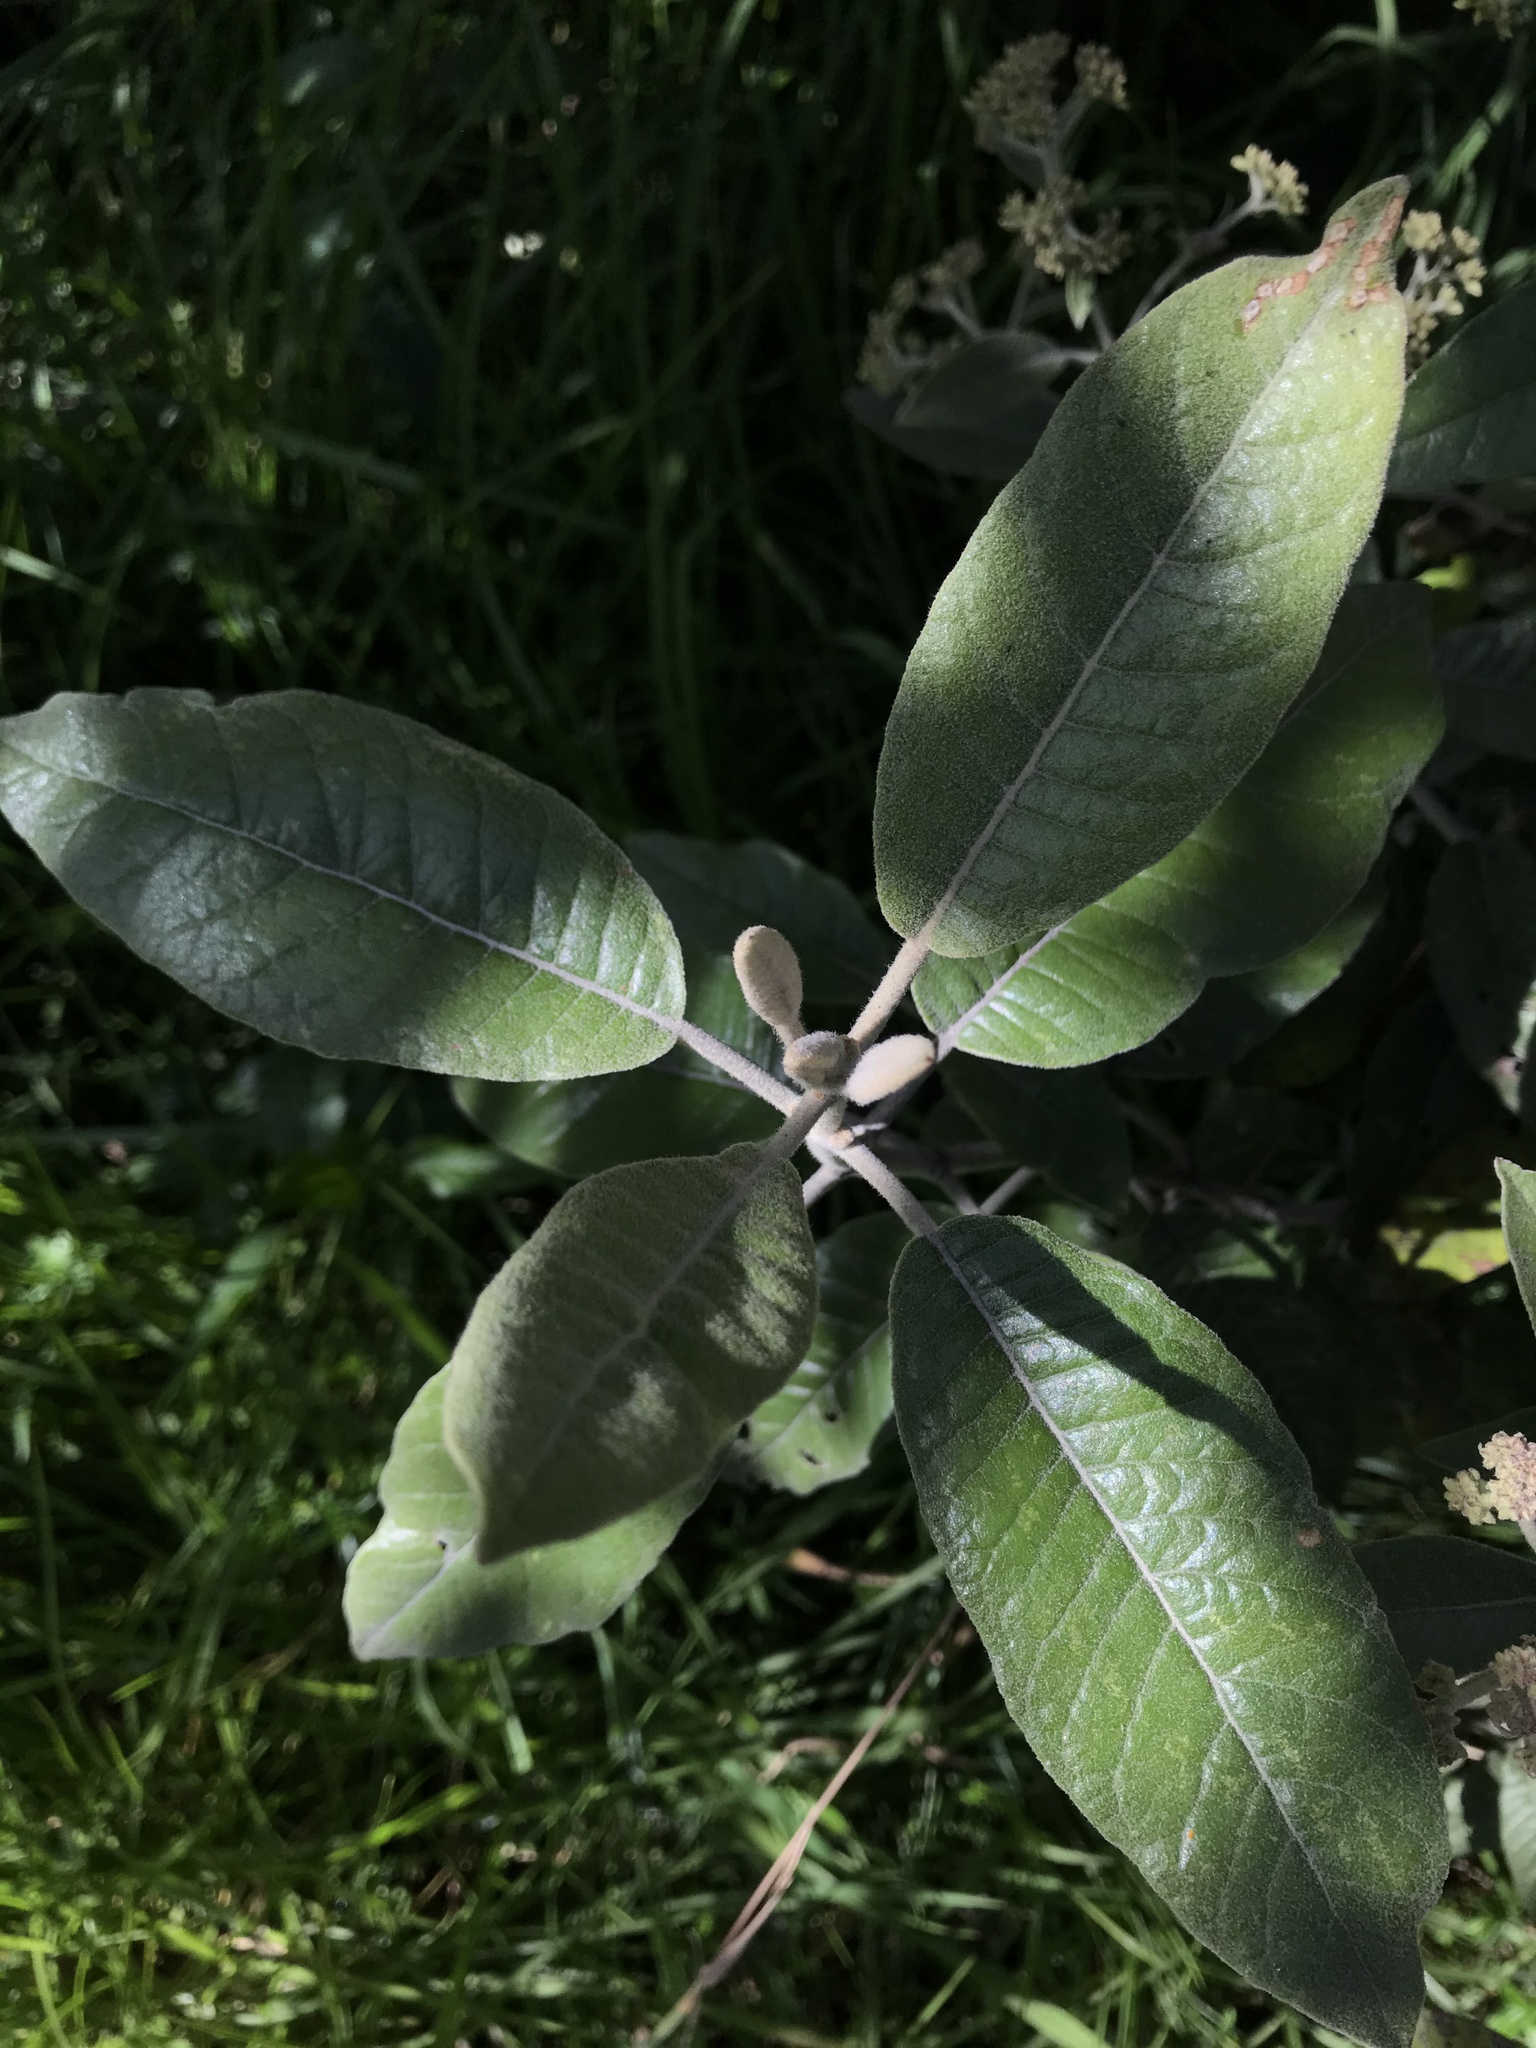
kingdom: Plantae
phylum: Tracheophyta
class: Magnoliopsida
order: Asterales
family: Asteraceae
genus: Ageratina
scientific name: Ageratina asclepiadea
